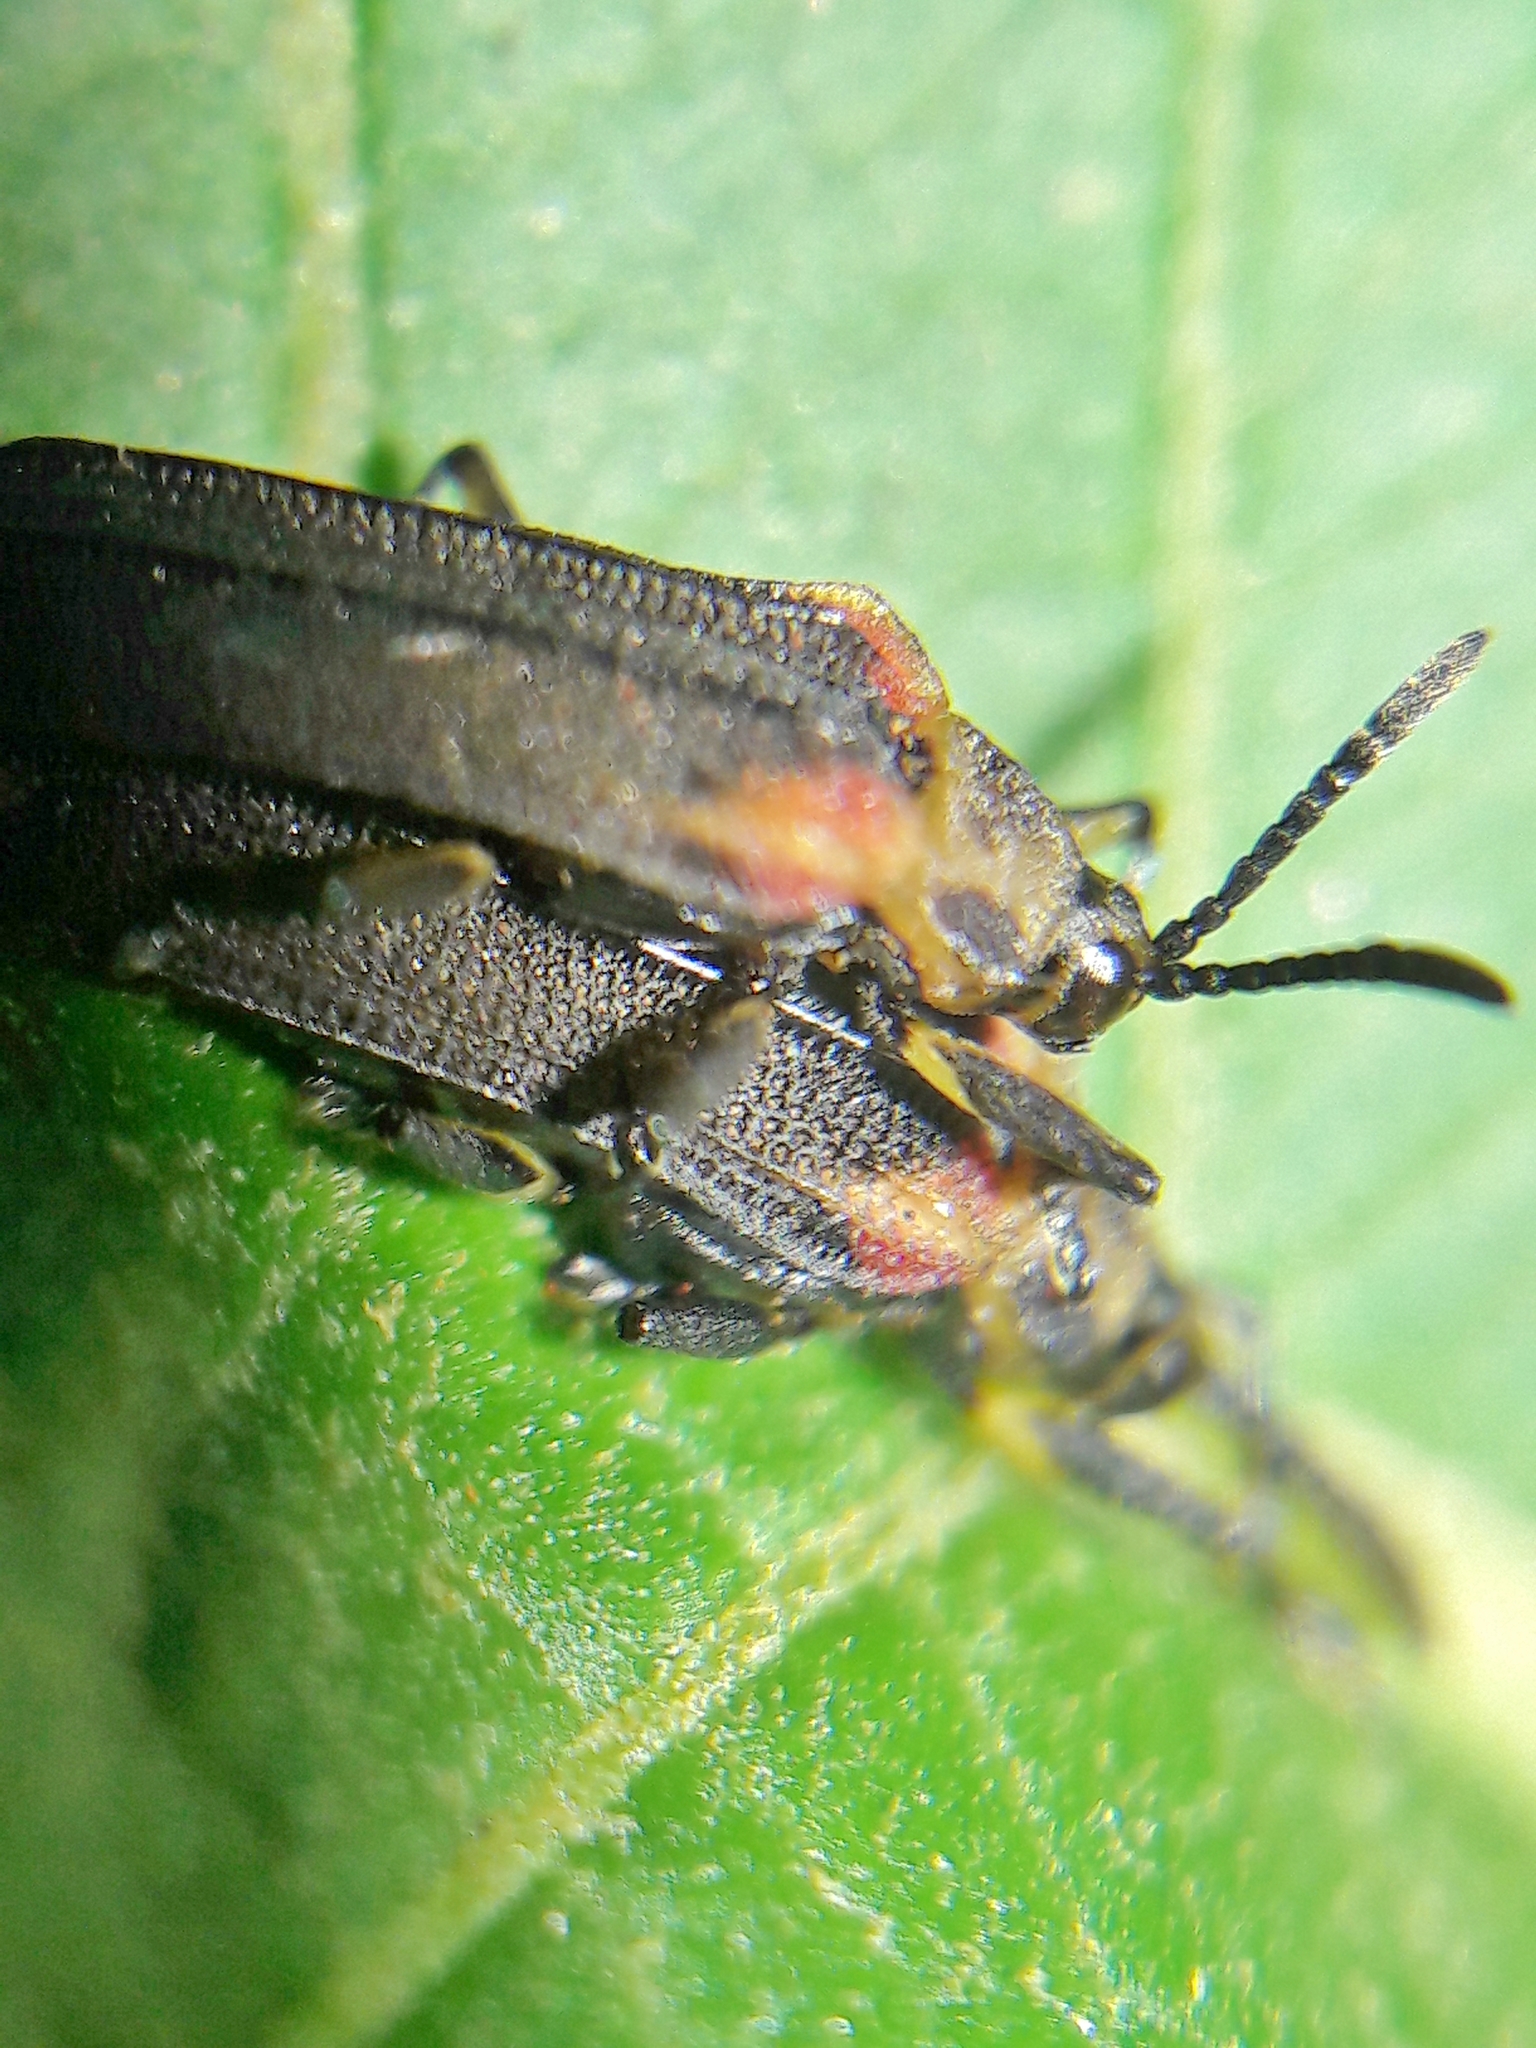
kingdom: Animalia
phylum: Arthropoda
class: Insecta
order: Coleoptera
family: Chrysomelidae
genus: Heterispa
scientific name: Heterispa vinula
